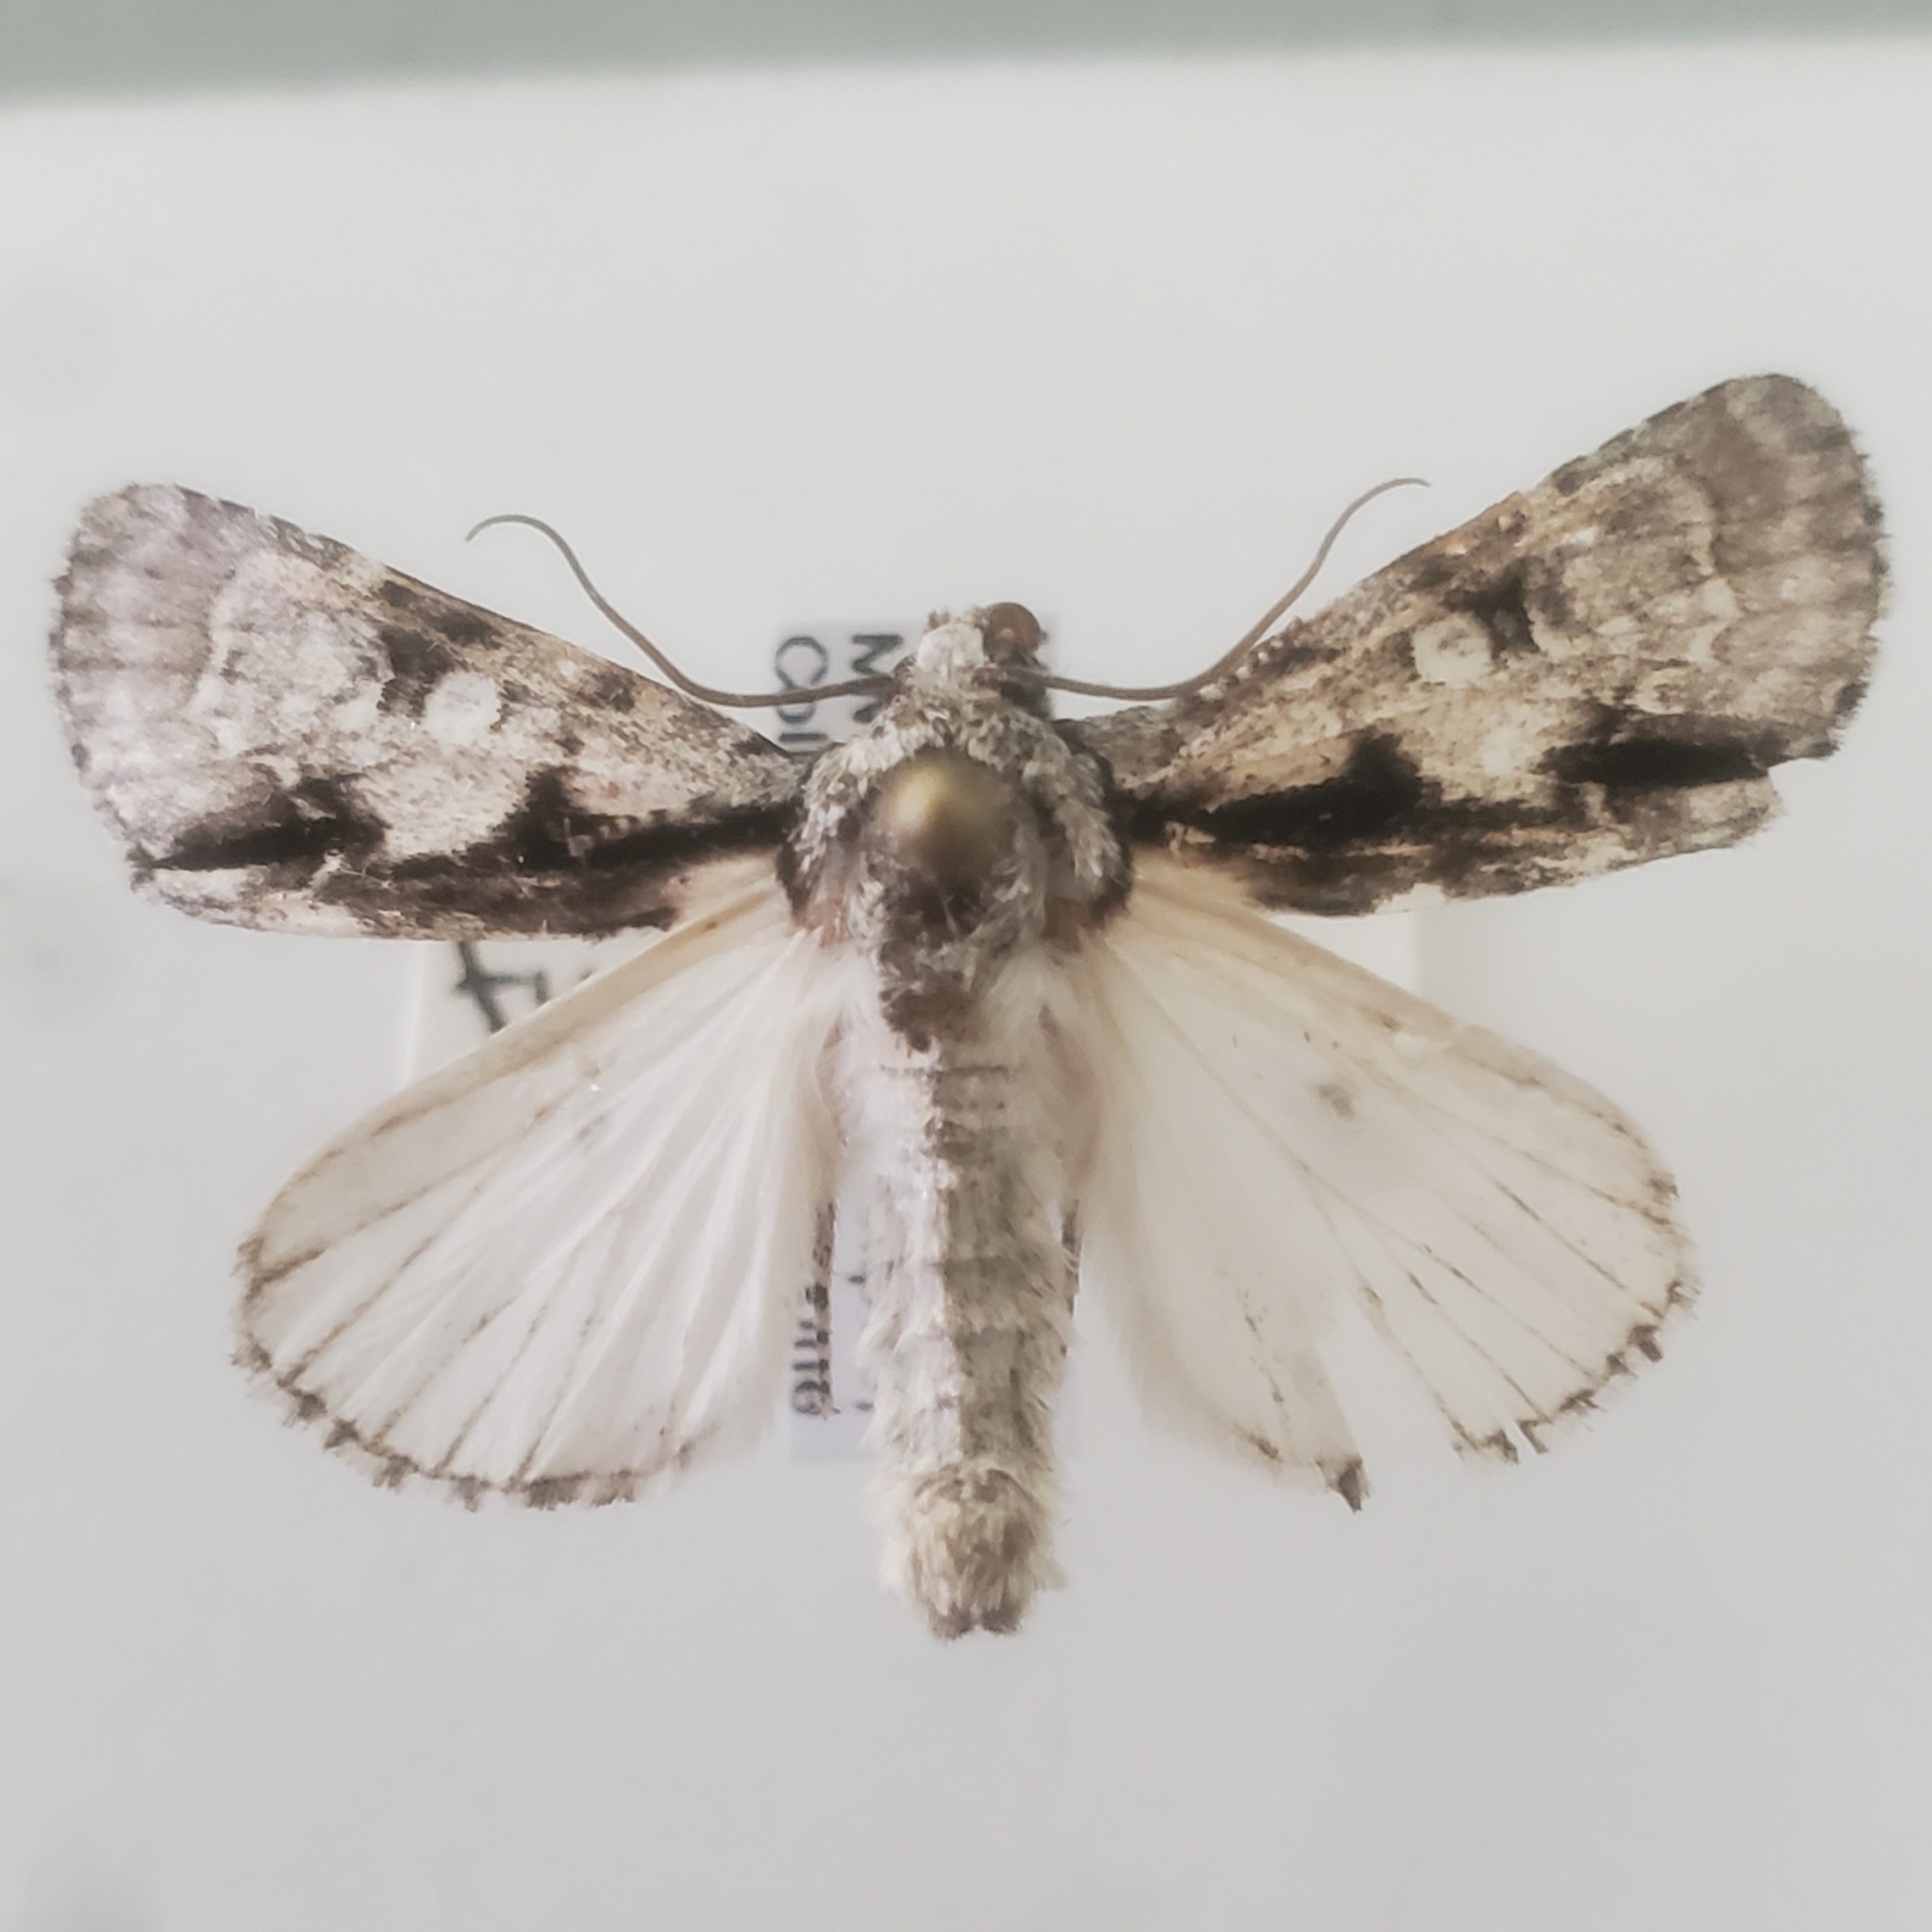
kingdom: Animalia
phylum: Arthropoda
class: Insecta
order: Lepidoptera
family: Noctuidae
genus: Acronicta
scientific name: Acronicta funeralis
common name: Funerary dagger
